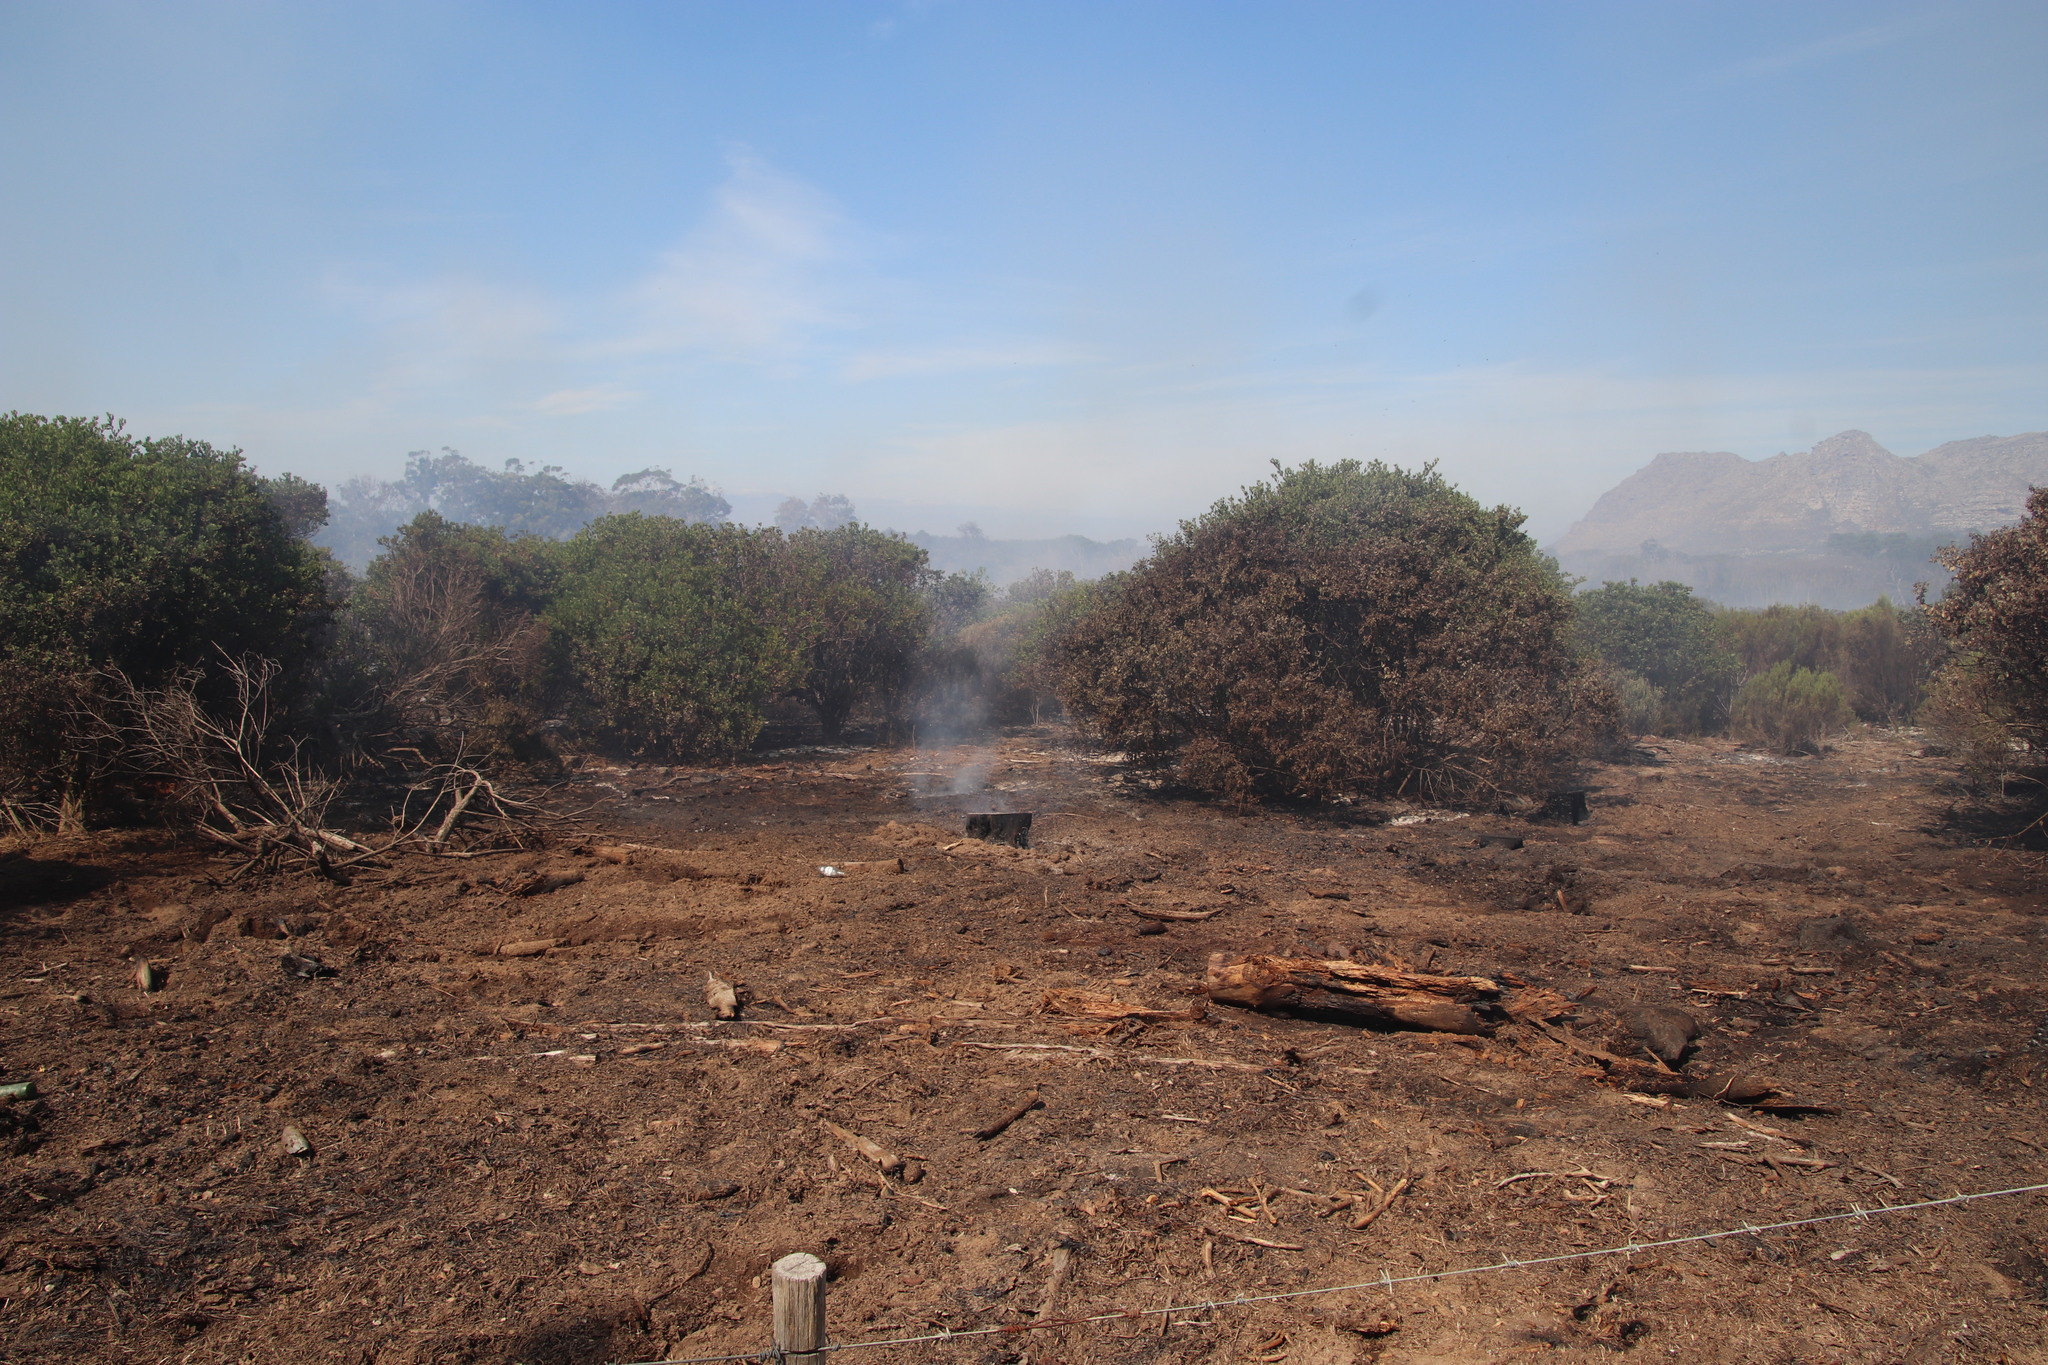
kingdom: Plantae
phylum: Tracheophyta
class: Magnoliopsida
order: Asterales
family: Asteraceae
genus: Osteospermum
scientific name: Osteospermum moniliferum
